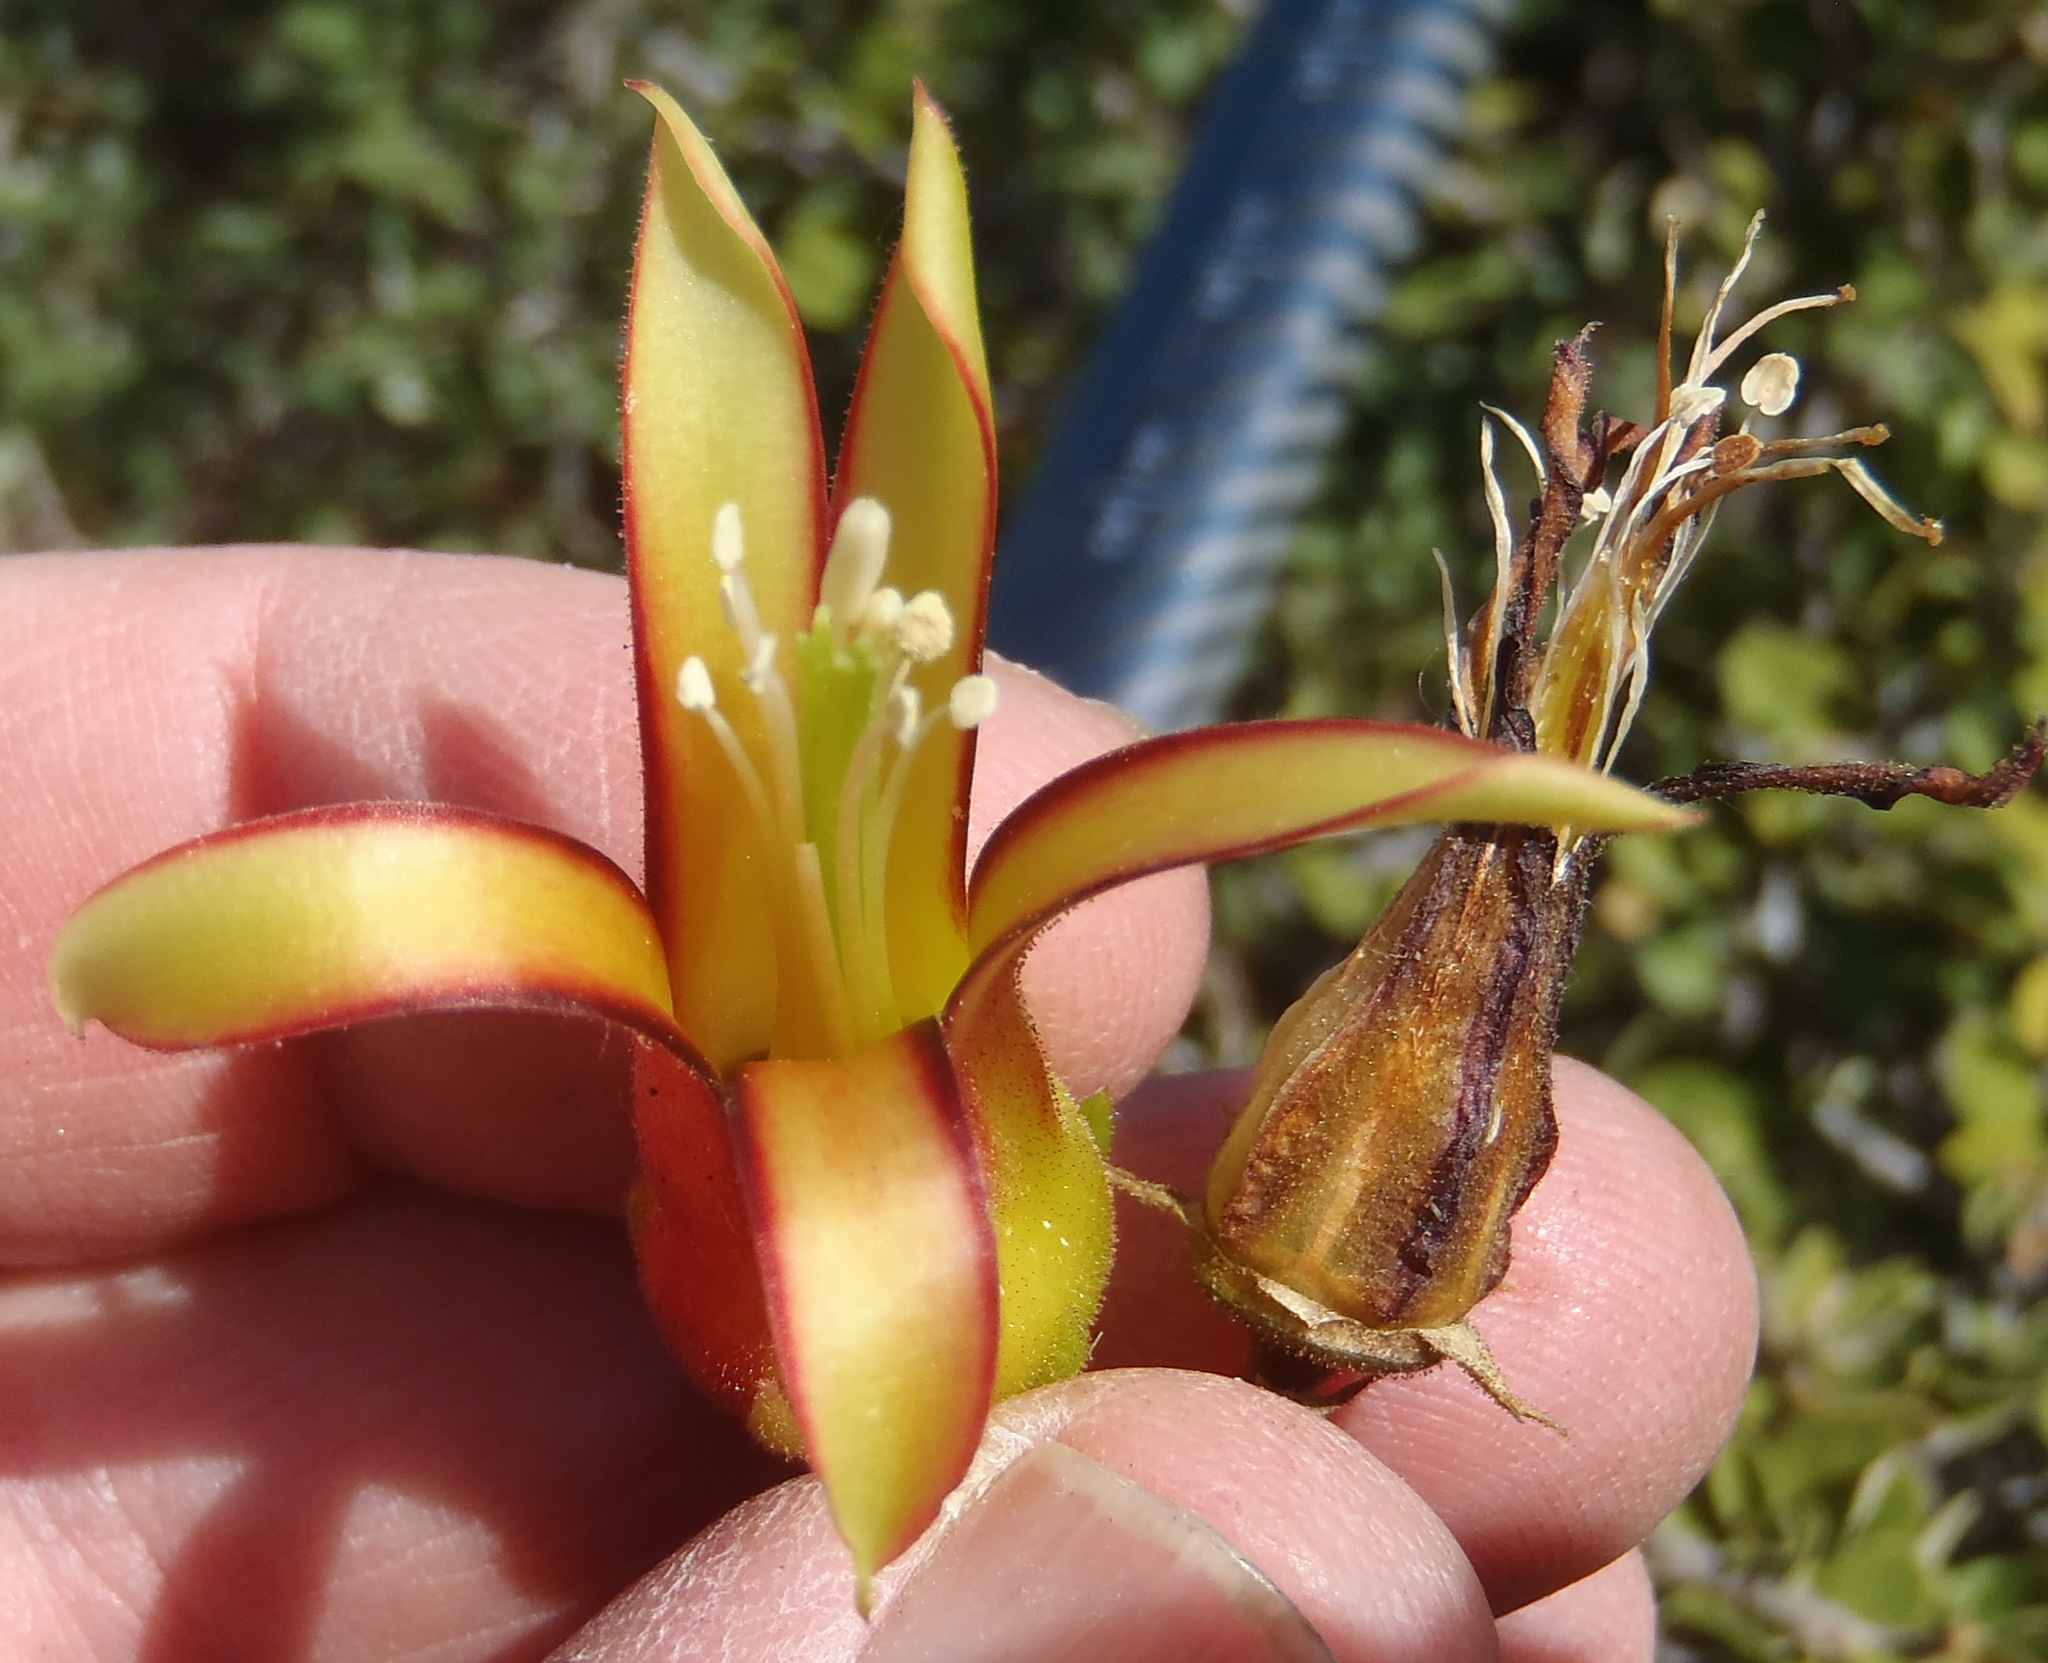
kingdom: Plantae
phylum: Tracheophyta
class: Magnoliopsida
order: Saxifragales
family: Crassulaceae
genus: Cotyledon
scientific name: Cotyledon velutina
